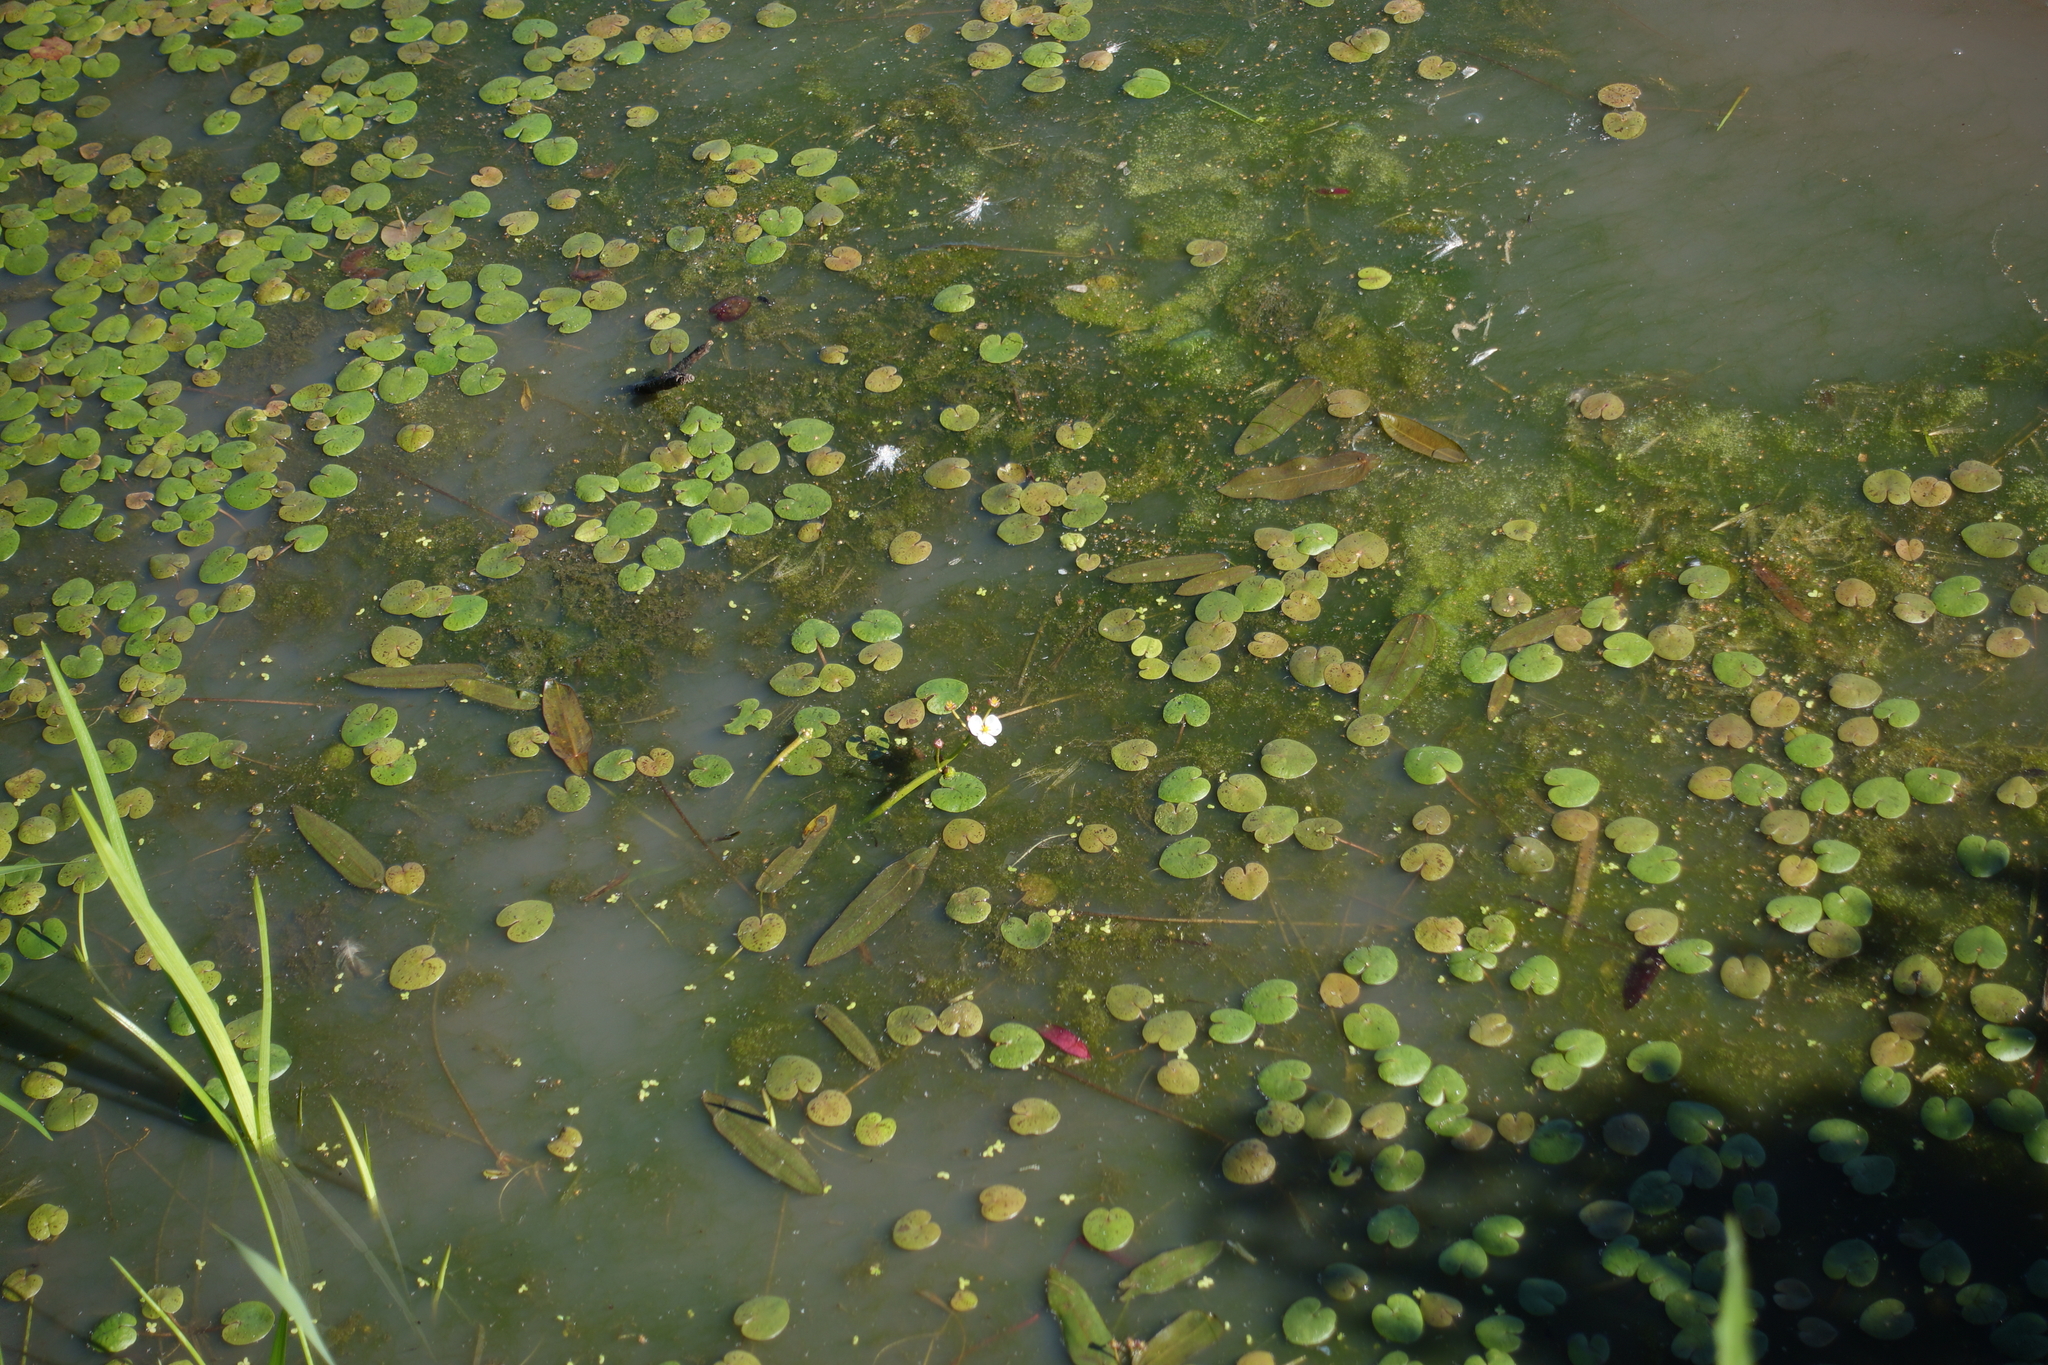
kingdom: Plantae
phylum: Tracheophyta
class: Liliopsida
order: Alismatales
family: Hydrocharitaceae
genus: Hydrocharis
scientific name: Hydrocharis morsus-ranae
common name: Frogbit
